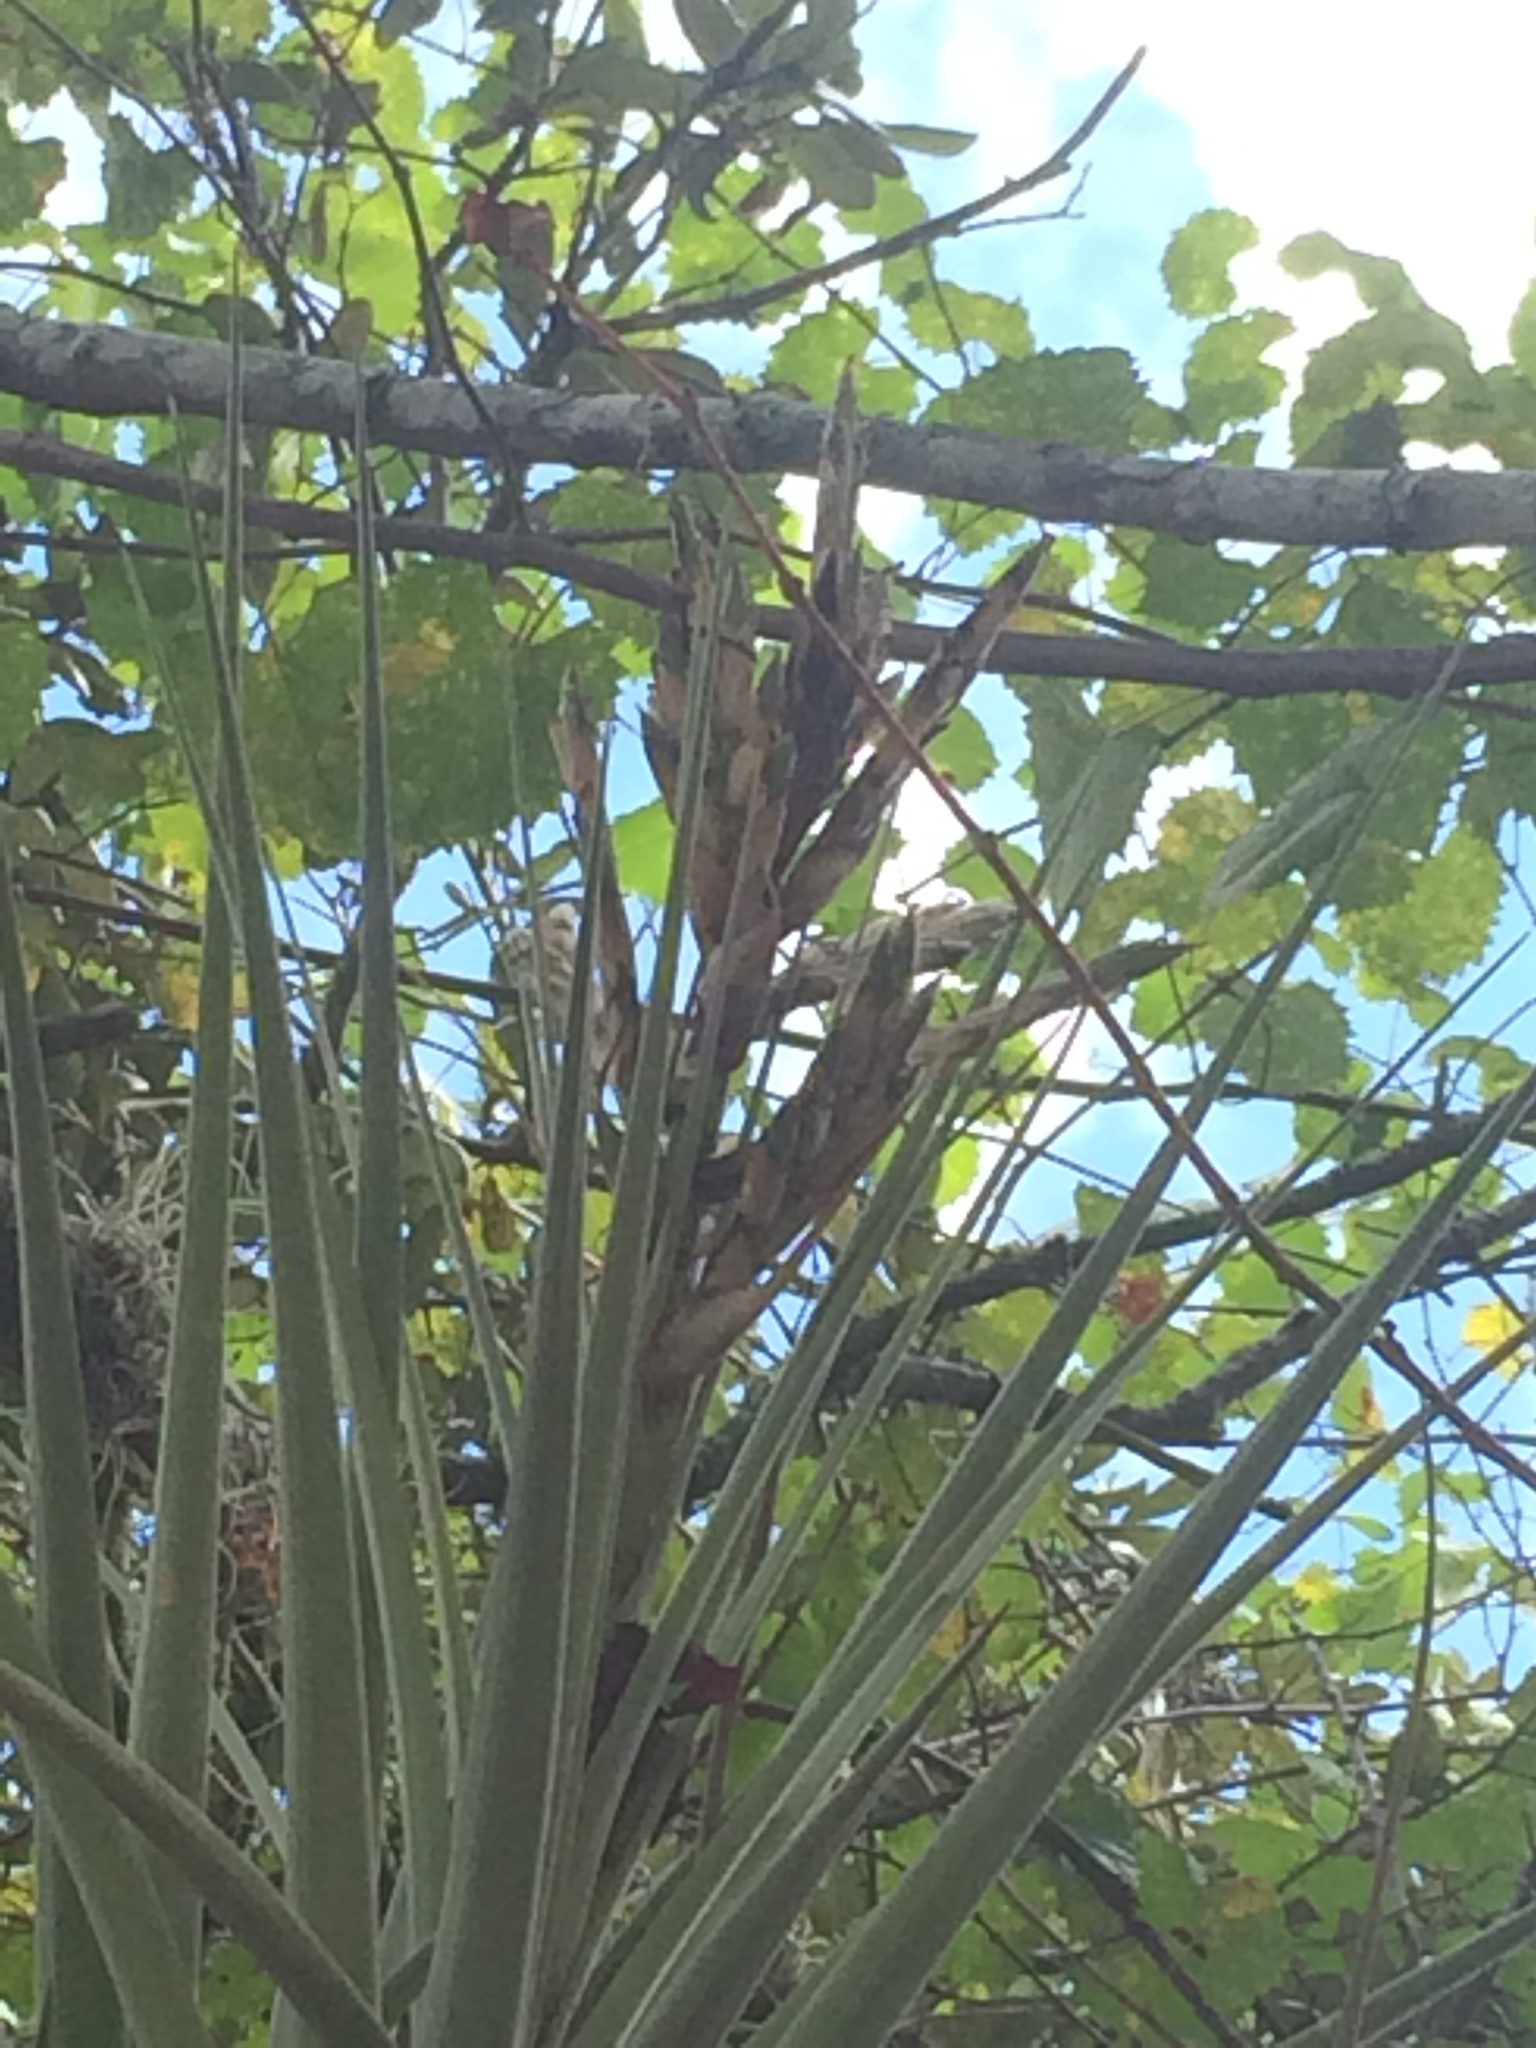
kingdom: Plantae
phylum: Tracheophyta
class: Liliopsida
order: Poales
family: Bromeliaceae
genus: Tillandsia
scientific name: Tillandsia fasciculata
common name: Giant airplant
